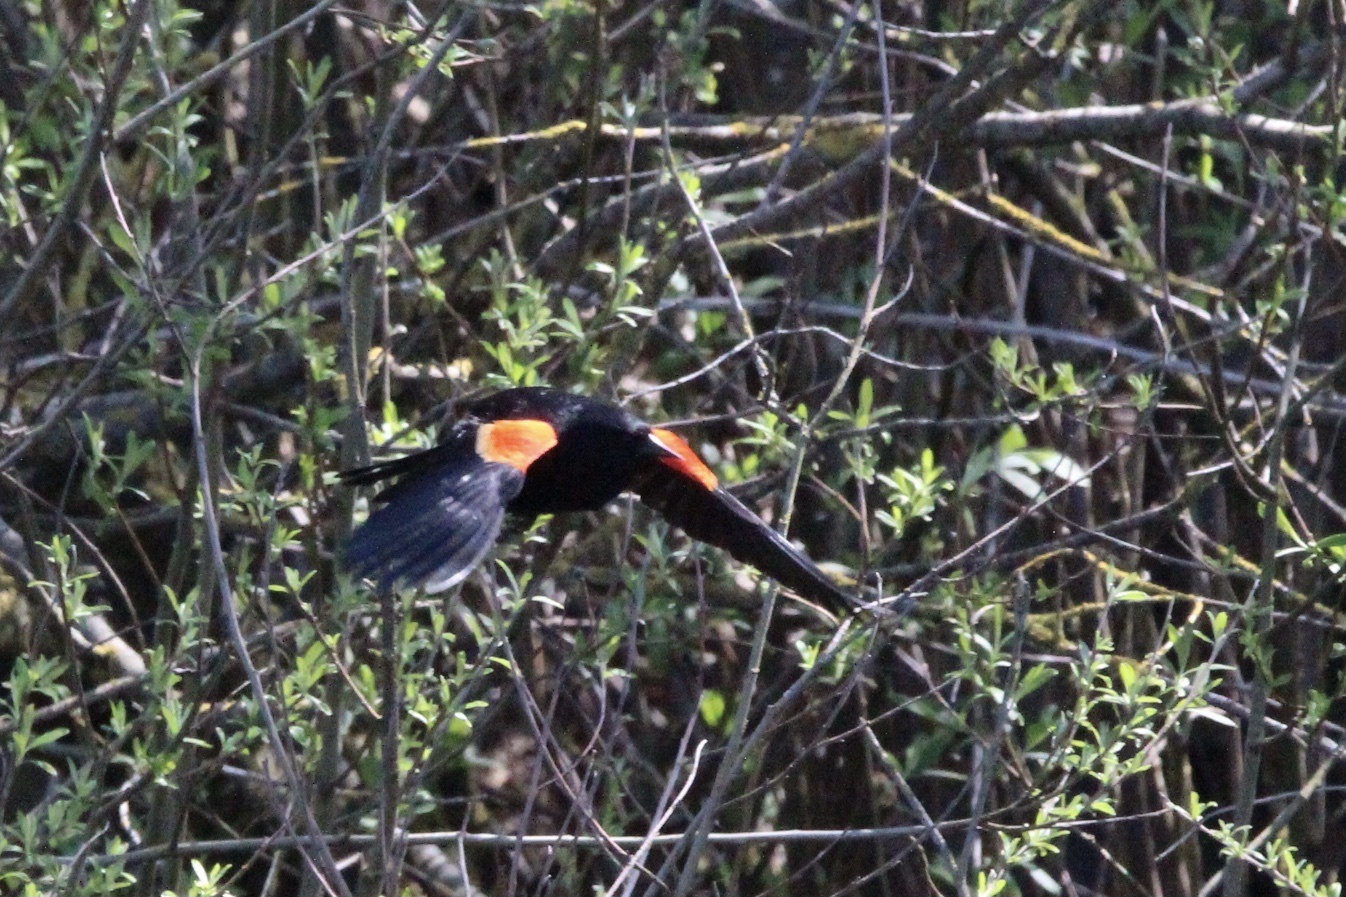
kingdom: Animalia
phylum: Chordata
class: Aves
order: Passeriformes
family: Icteridae
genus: Agelaius
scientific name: Agelaius phoeniceus
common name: Red-winged blackbird
